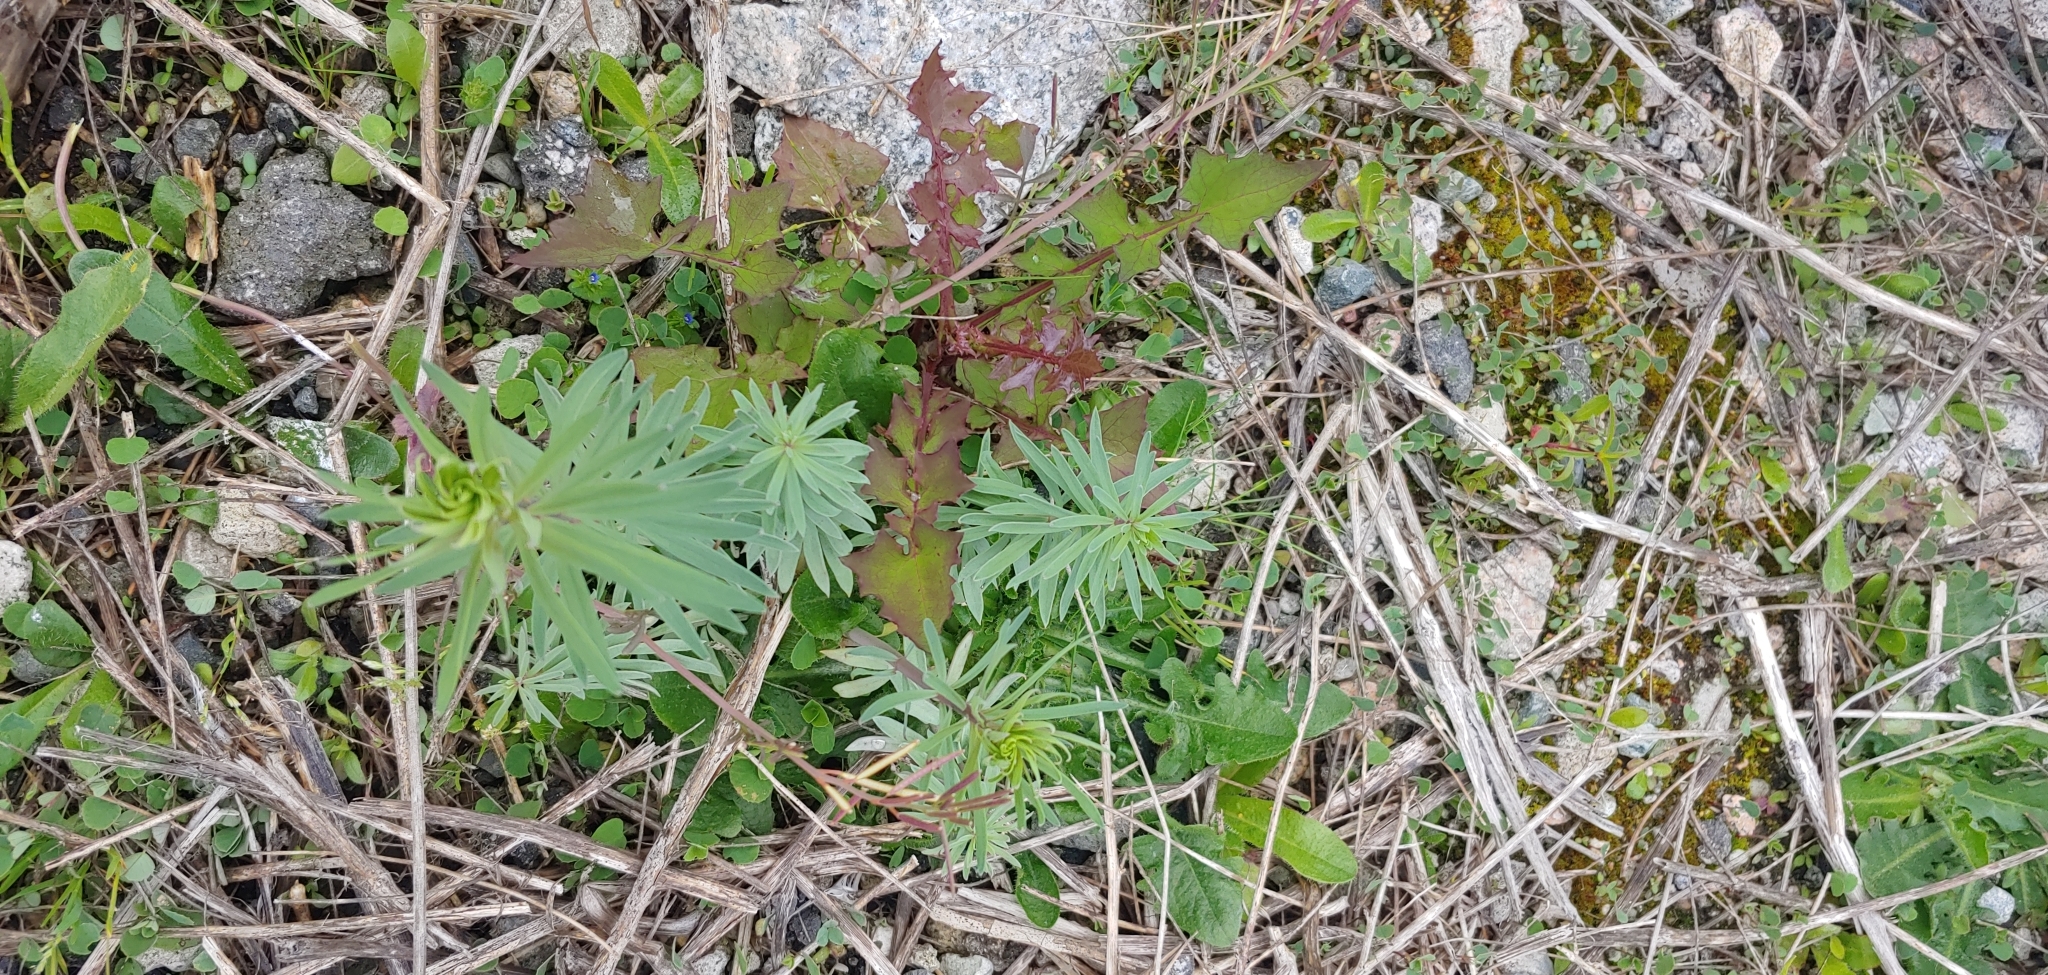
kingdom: Plantae
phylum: Tracheophyta
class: Magnoliopsida
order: Lamiales
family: Plantaginaceae
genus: Linaria
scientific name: Linaria vulgaris
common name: Butter and eggs
